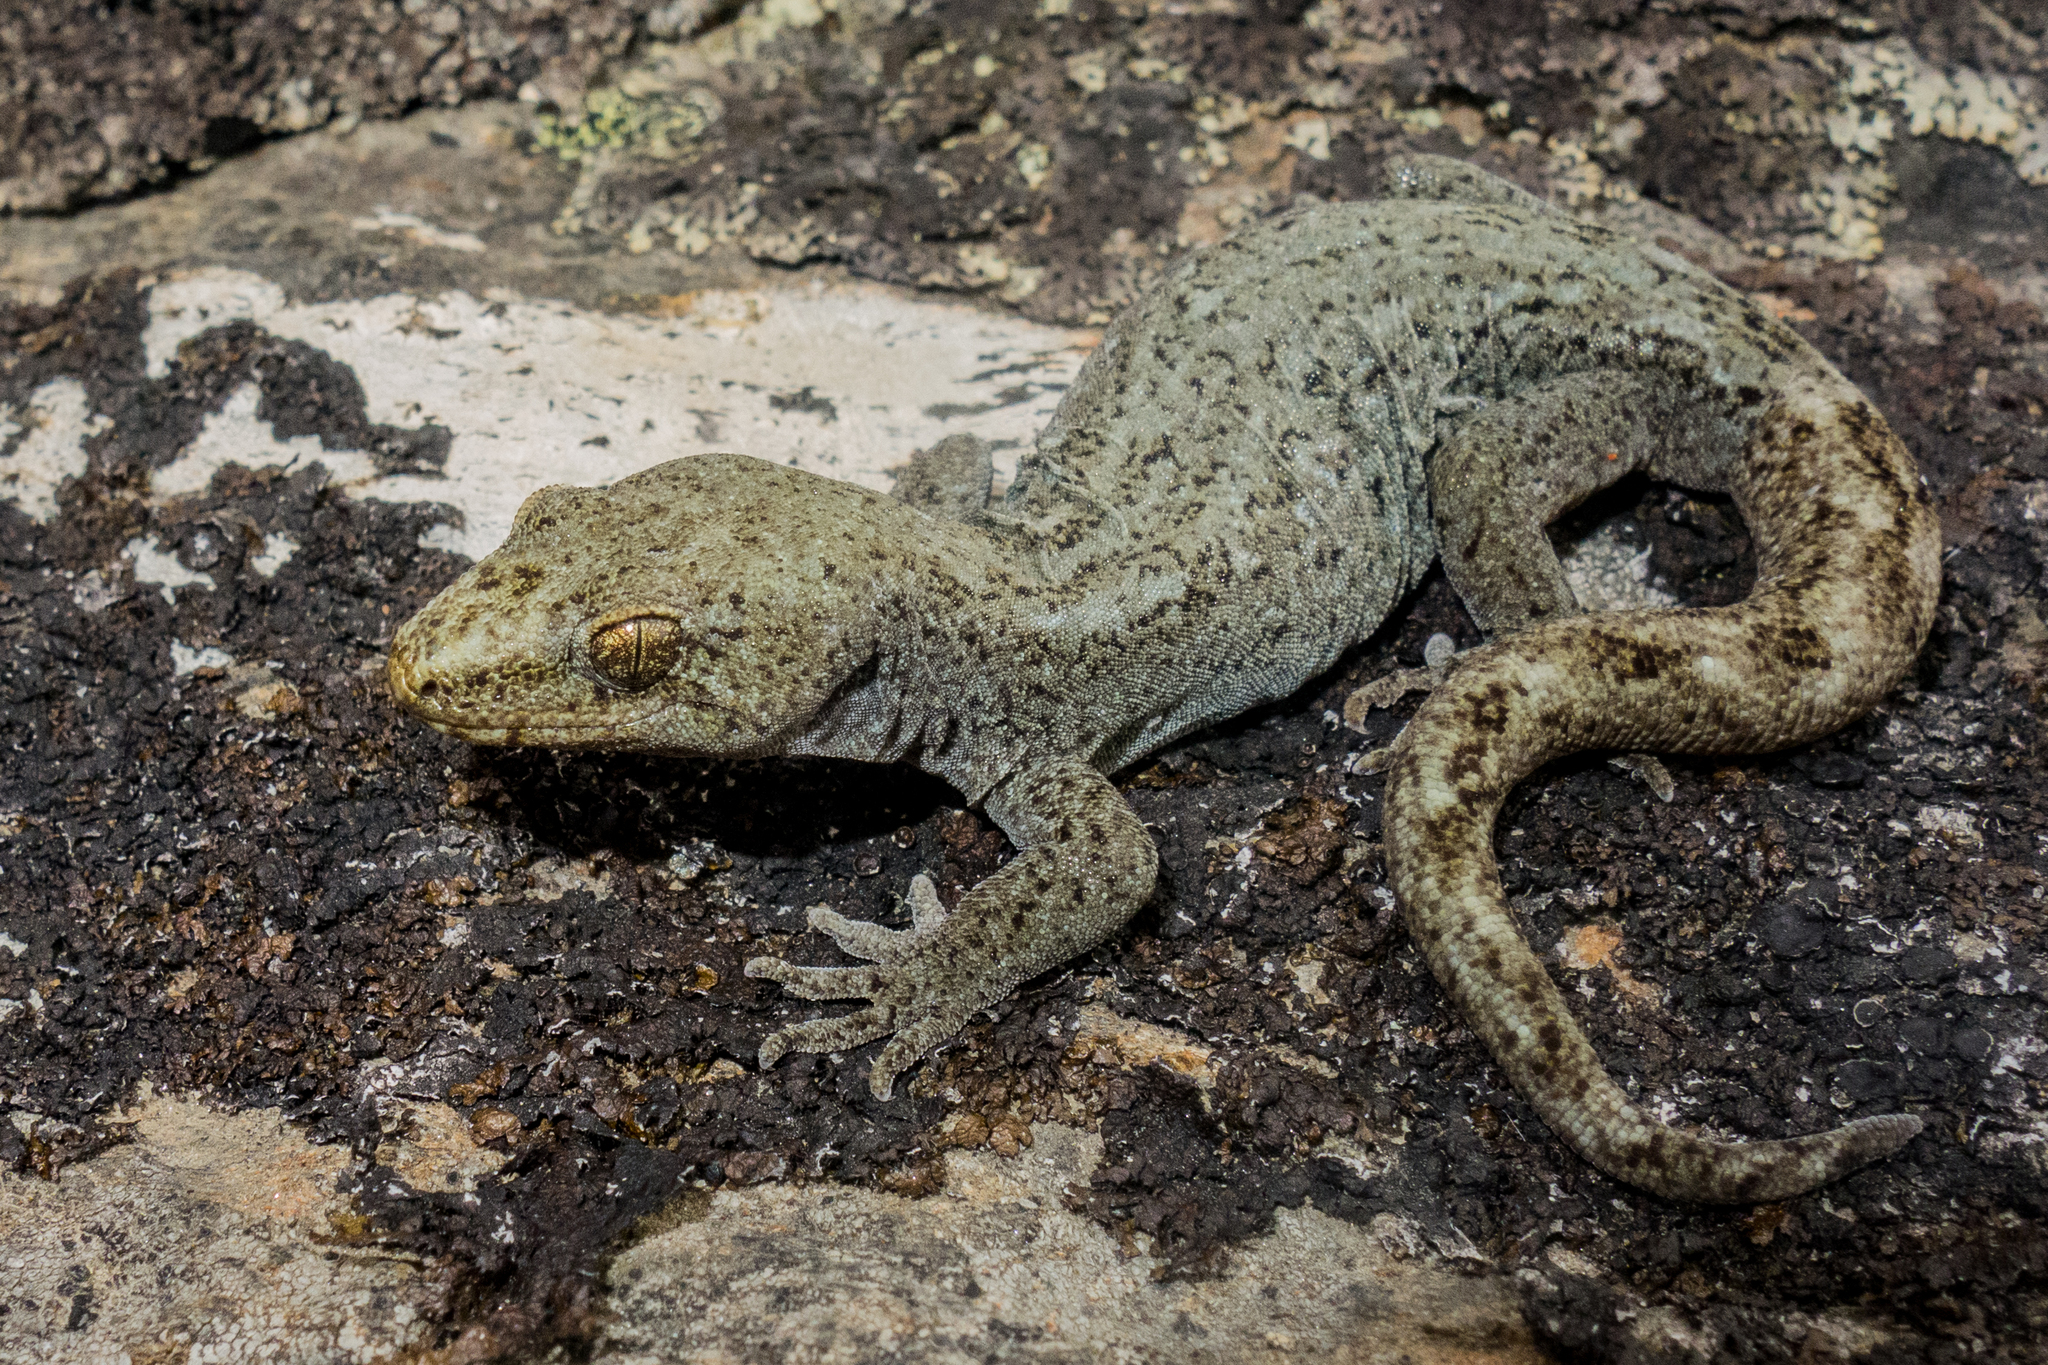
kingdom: Animalia
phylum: Chordata
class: Squamata
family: Diplodactylidae
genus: Woodworthia
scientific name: Woodworthia
